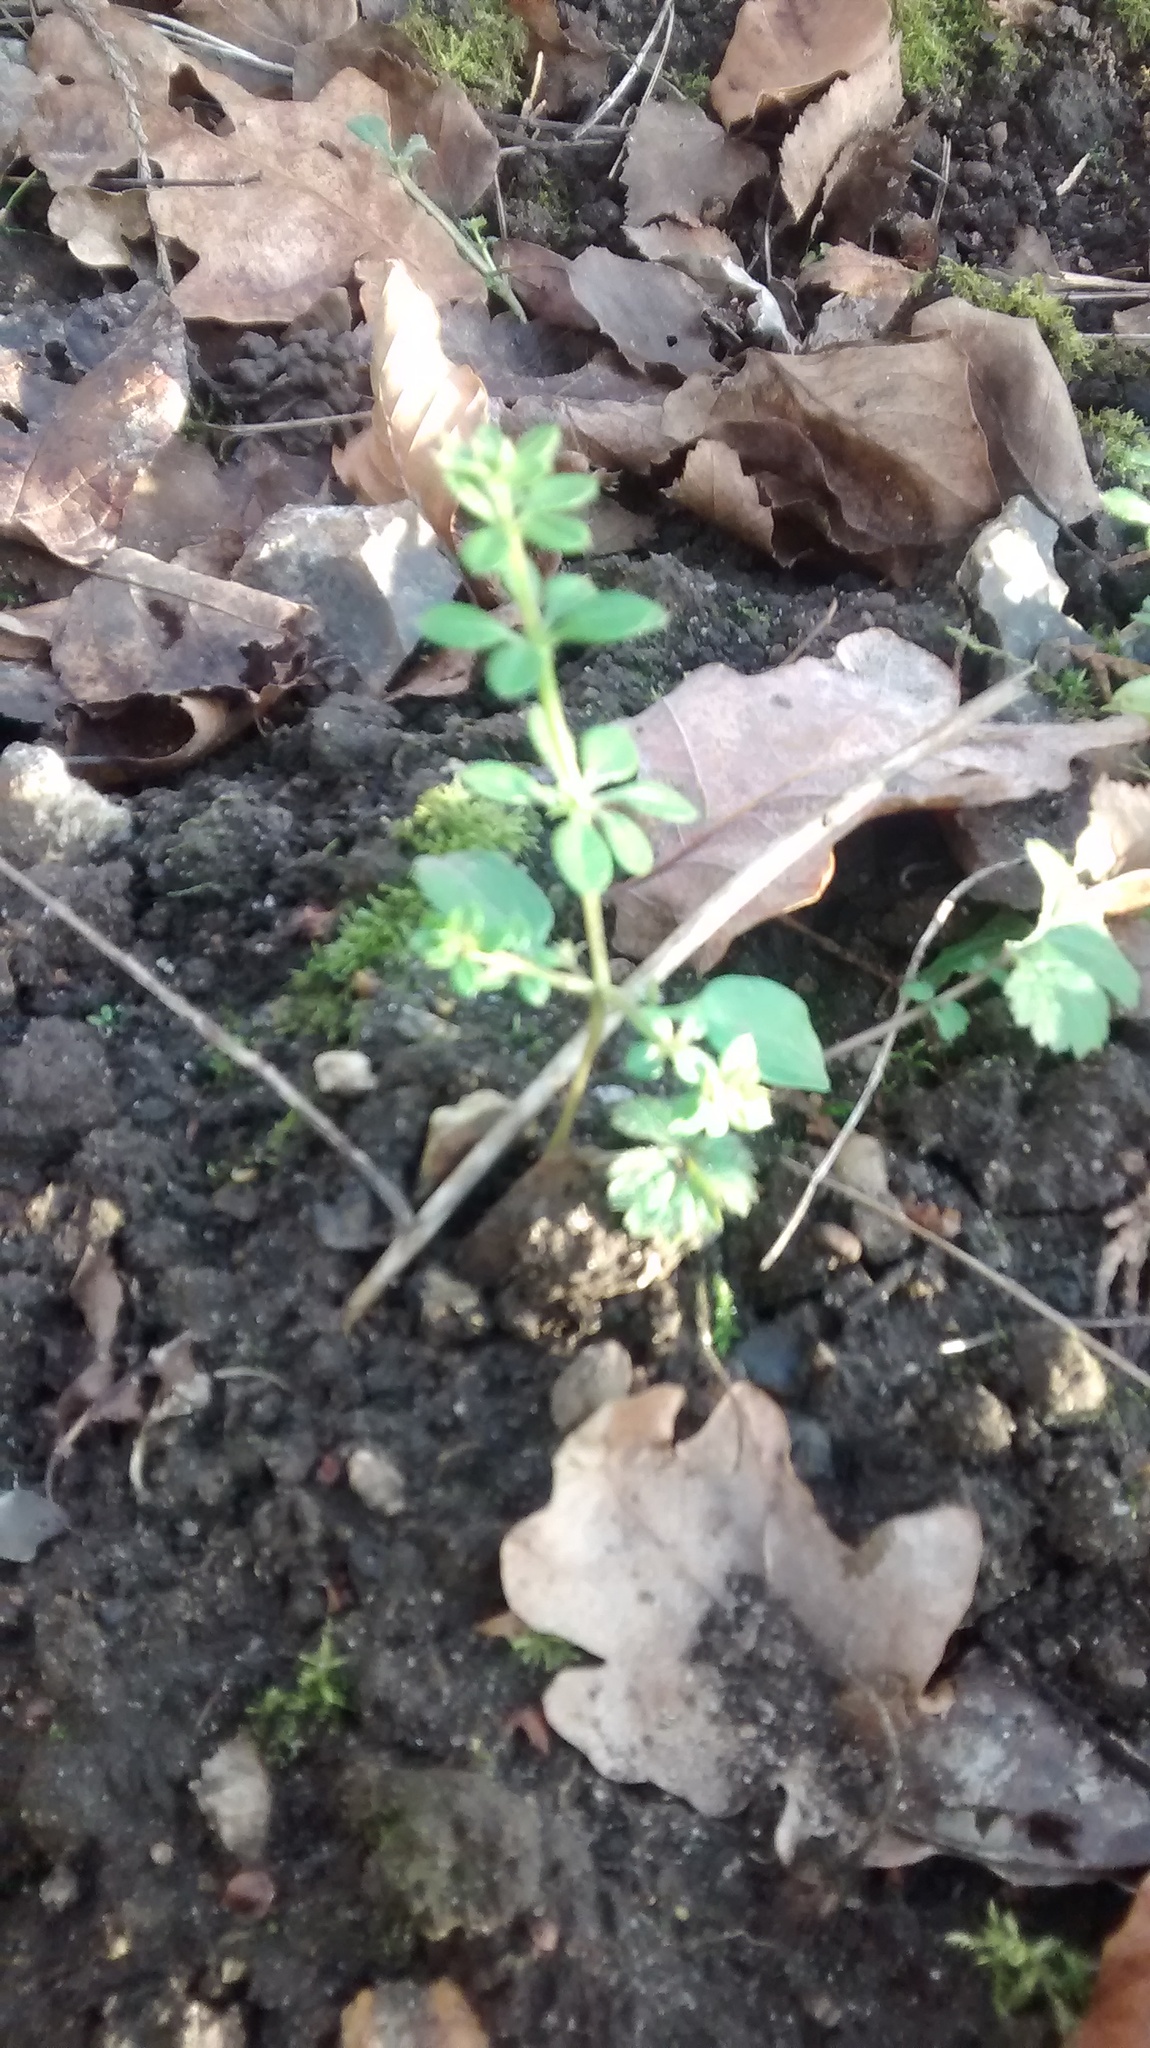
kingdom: Plantae
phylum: Tracheophyta
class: Magnoliopsida
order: Gentianales
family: Rubiaceae
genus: Galium
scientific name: Galium aparine
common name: Cleavers
